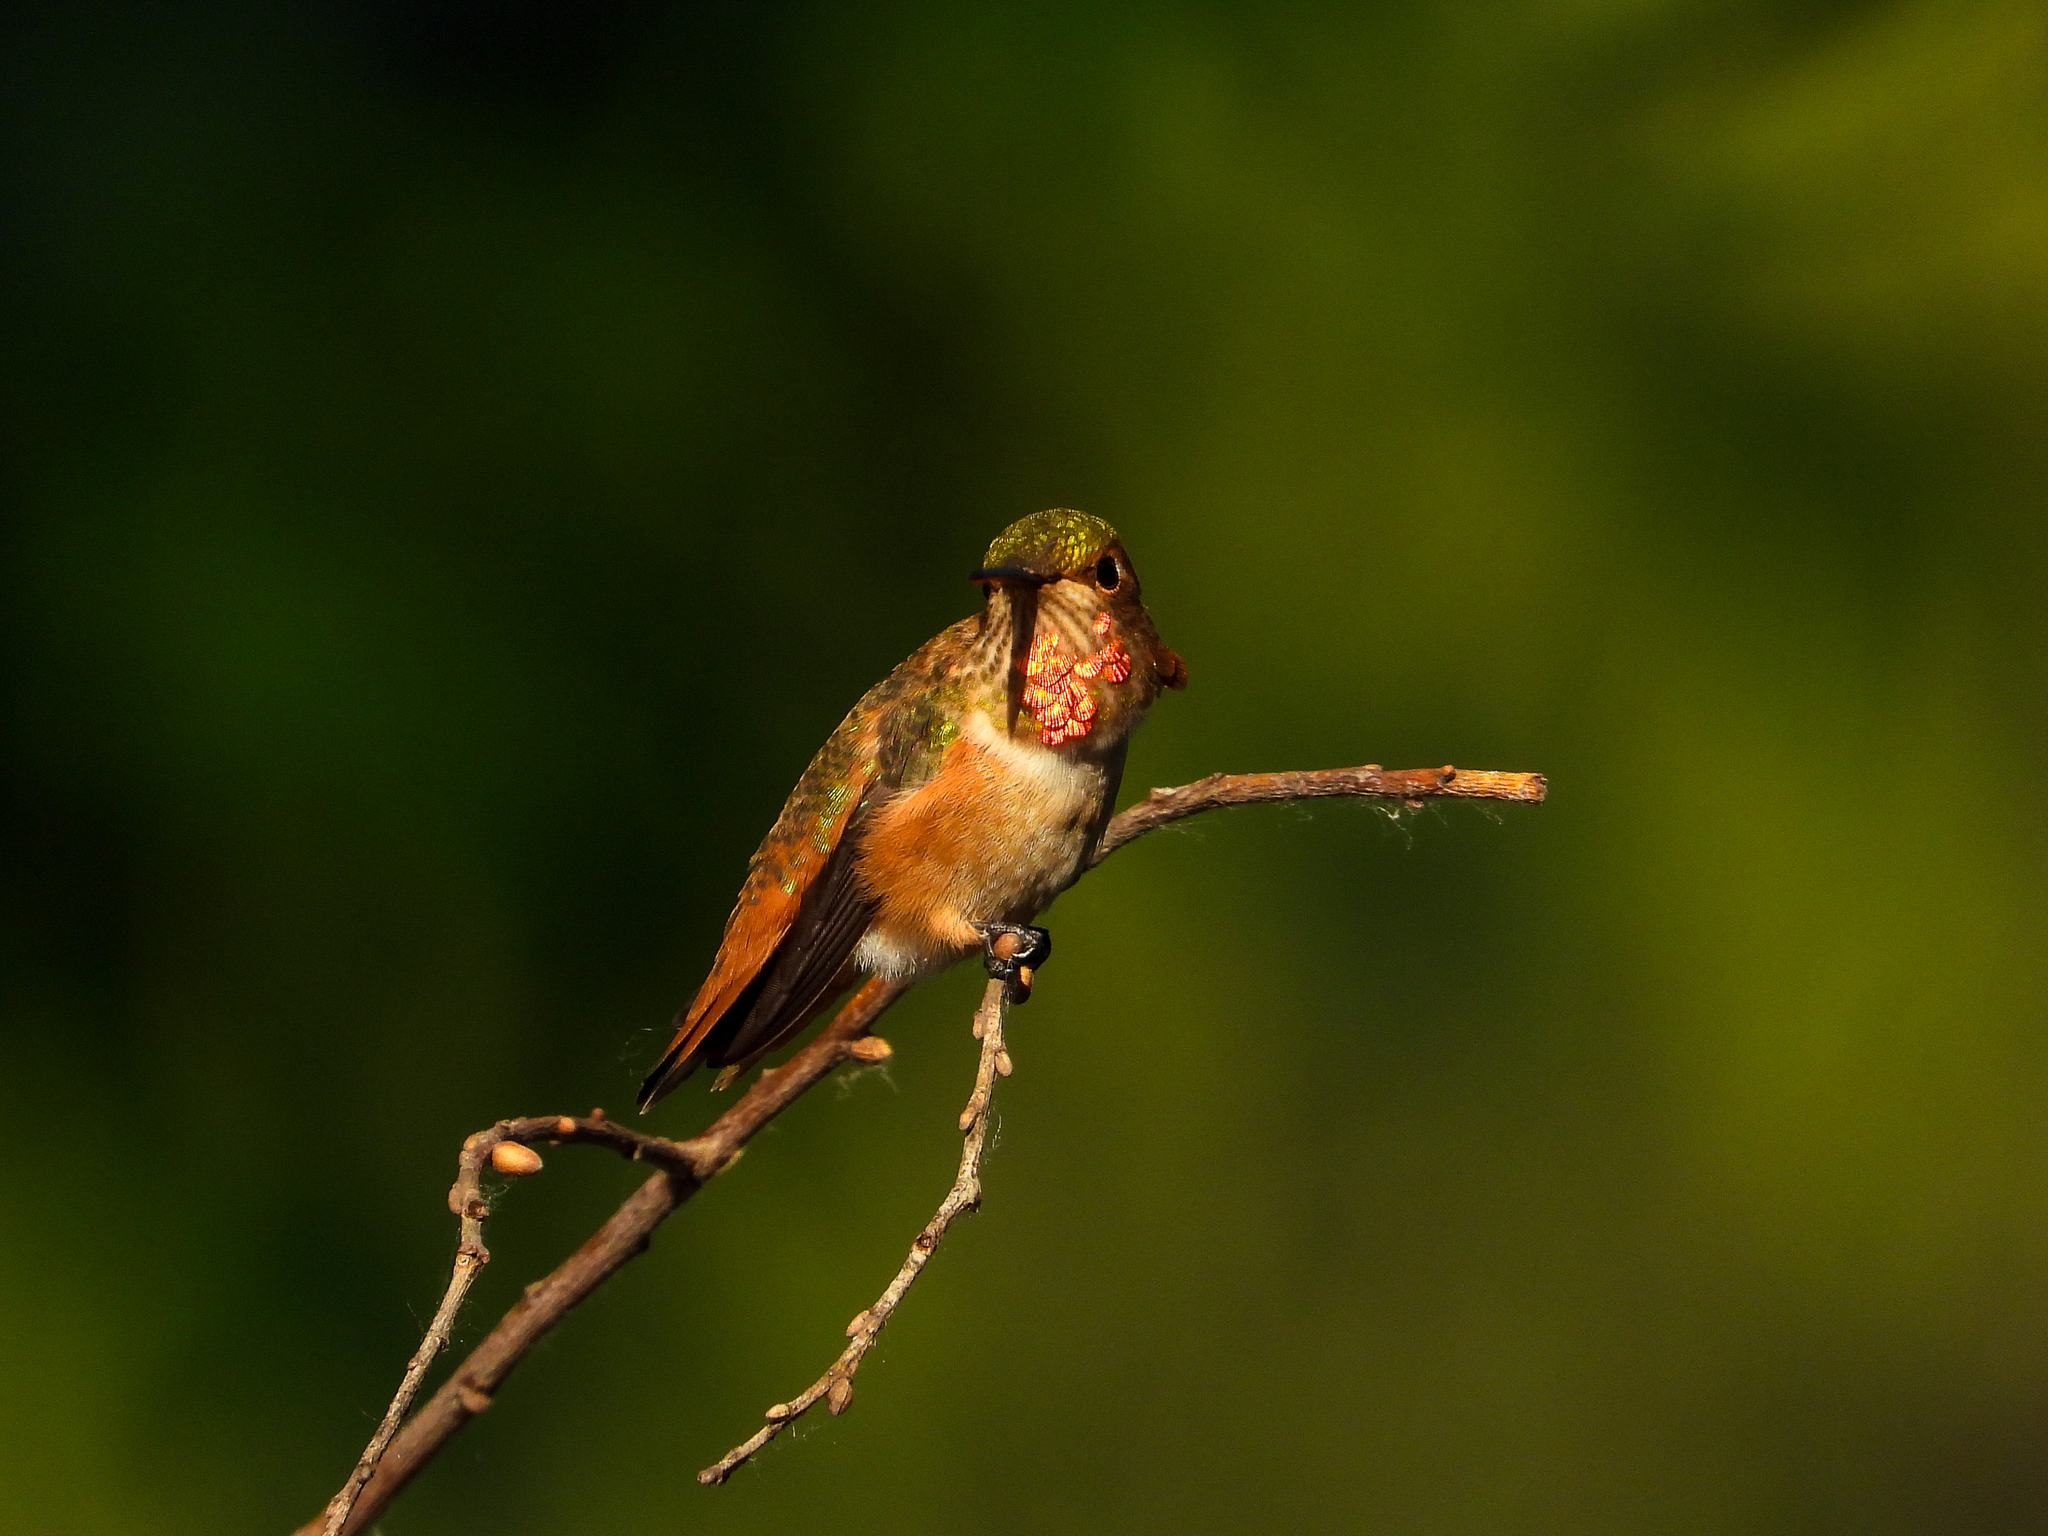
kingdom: Animalia
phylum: Chordata
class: Aves
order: Apodiformes
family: Trochilidae
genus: Selasphorus
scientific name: Selasphorus sasin
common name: Allen's hummingbird
